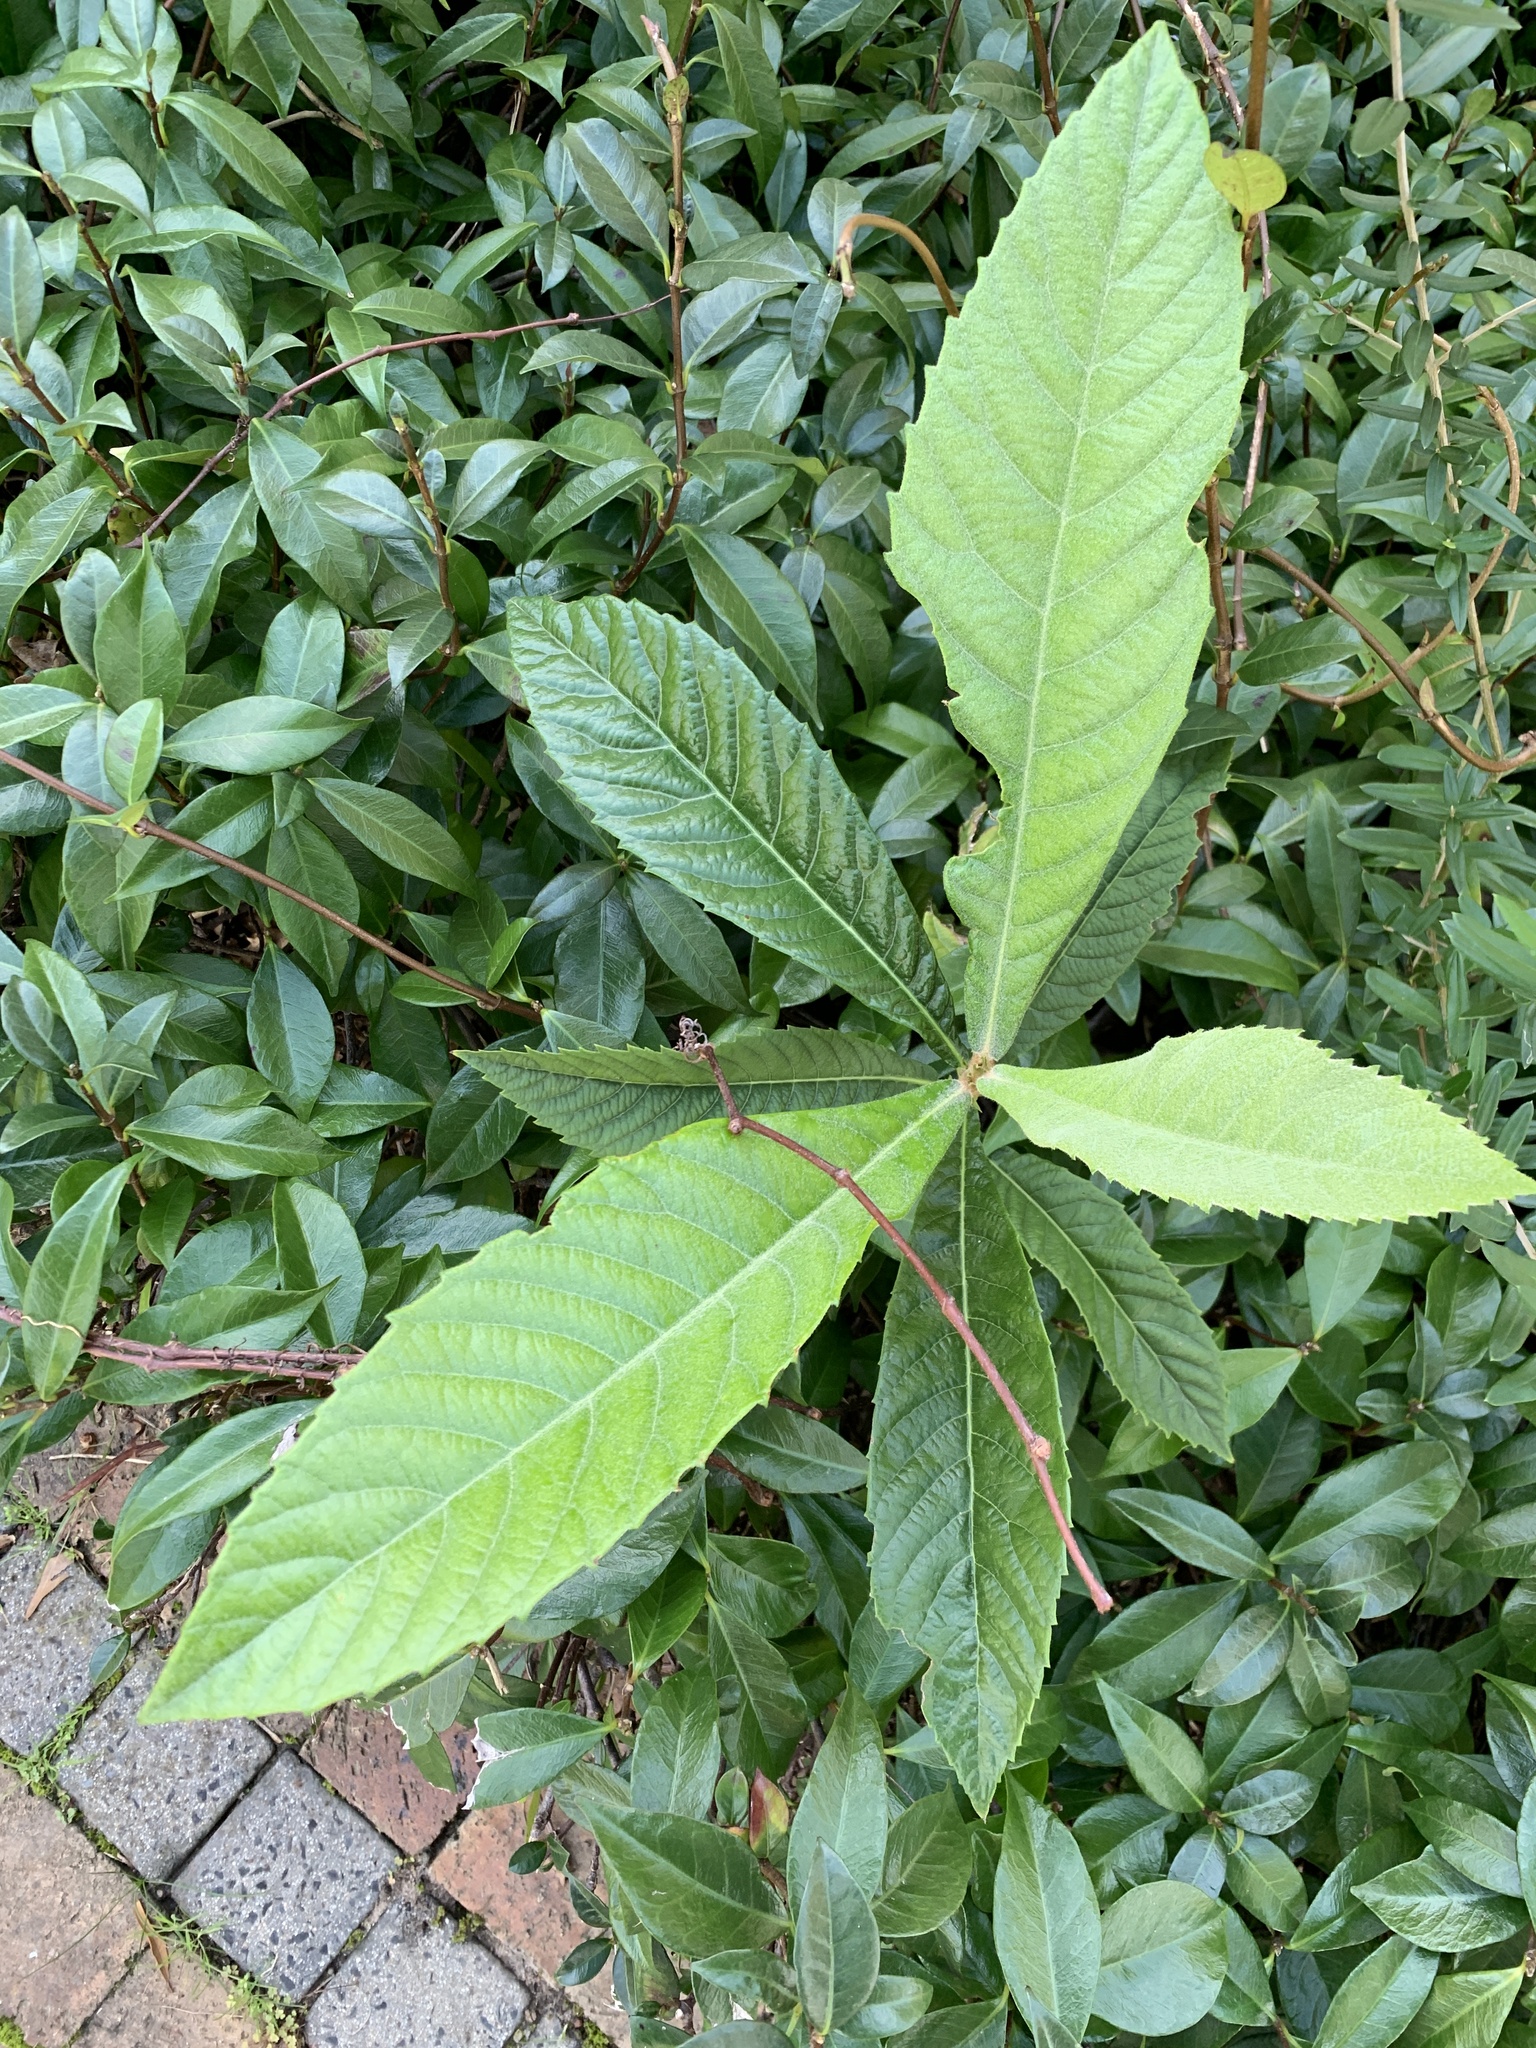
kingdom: Plantae
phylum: Tracheophyta
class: Magnoliopsida
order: Rosales
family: Rosaceae
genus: Rhaphiolepis
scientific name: Rhaphiolepis bibas
